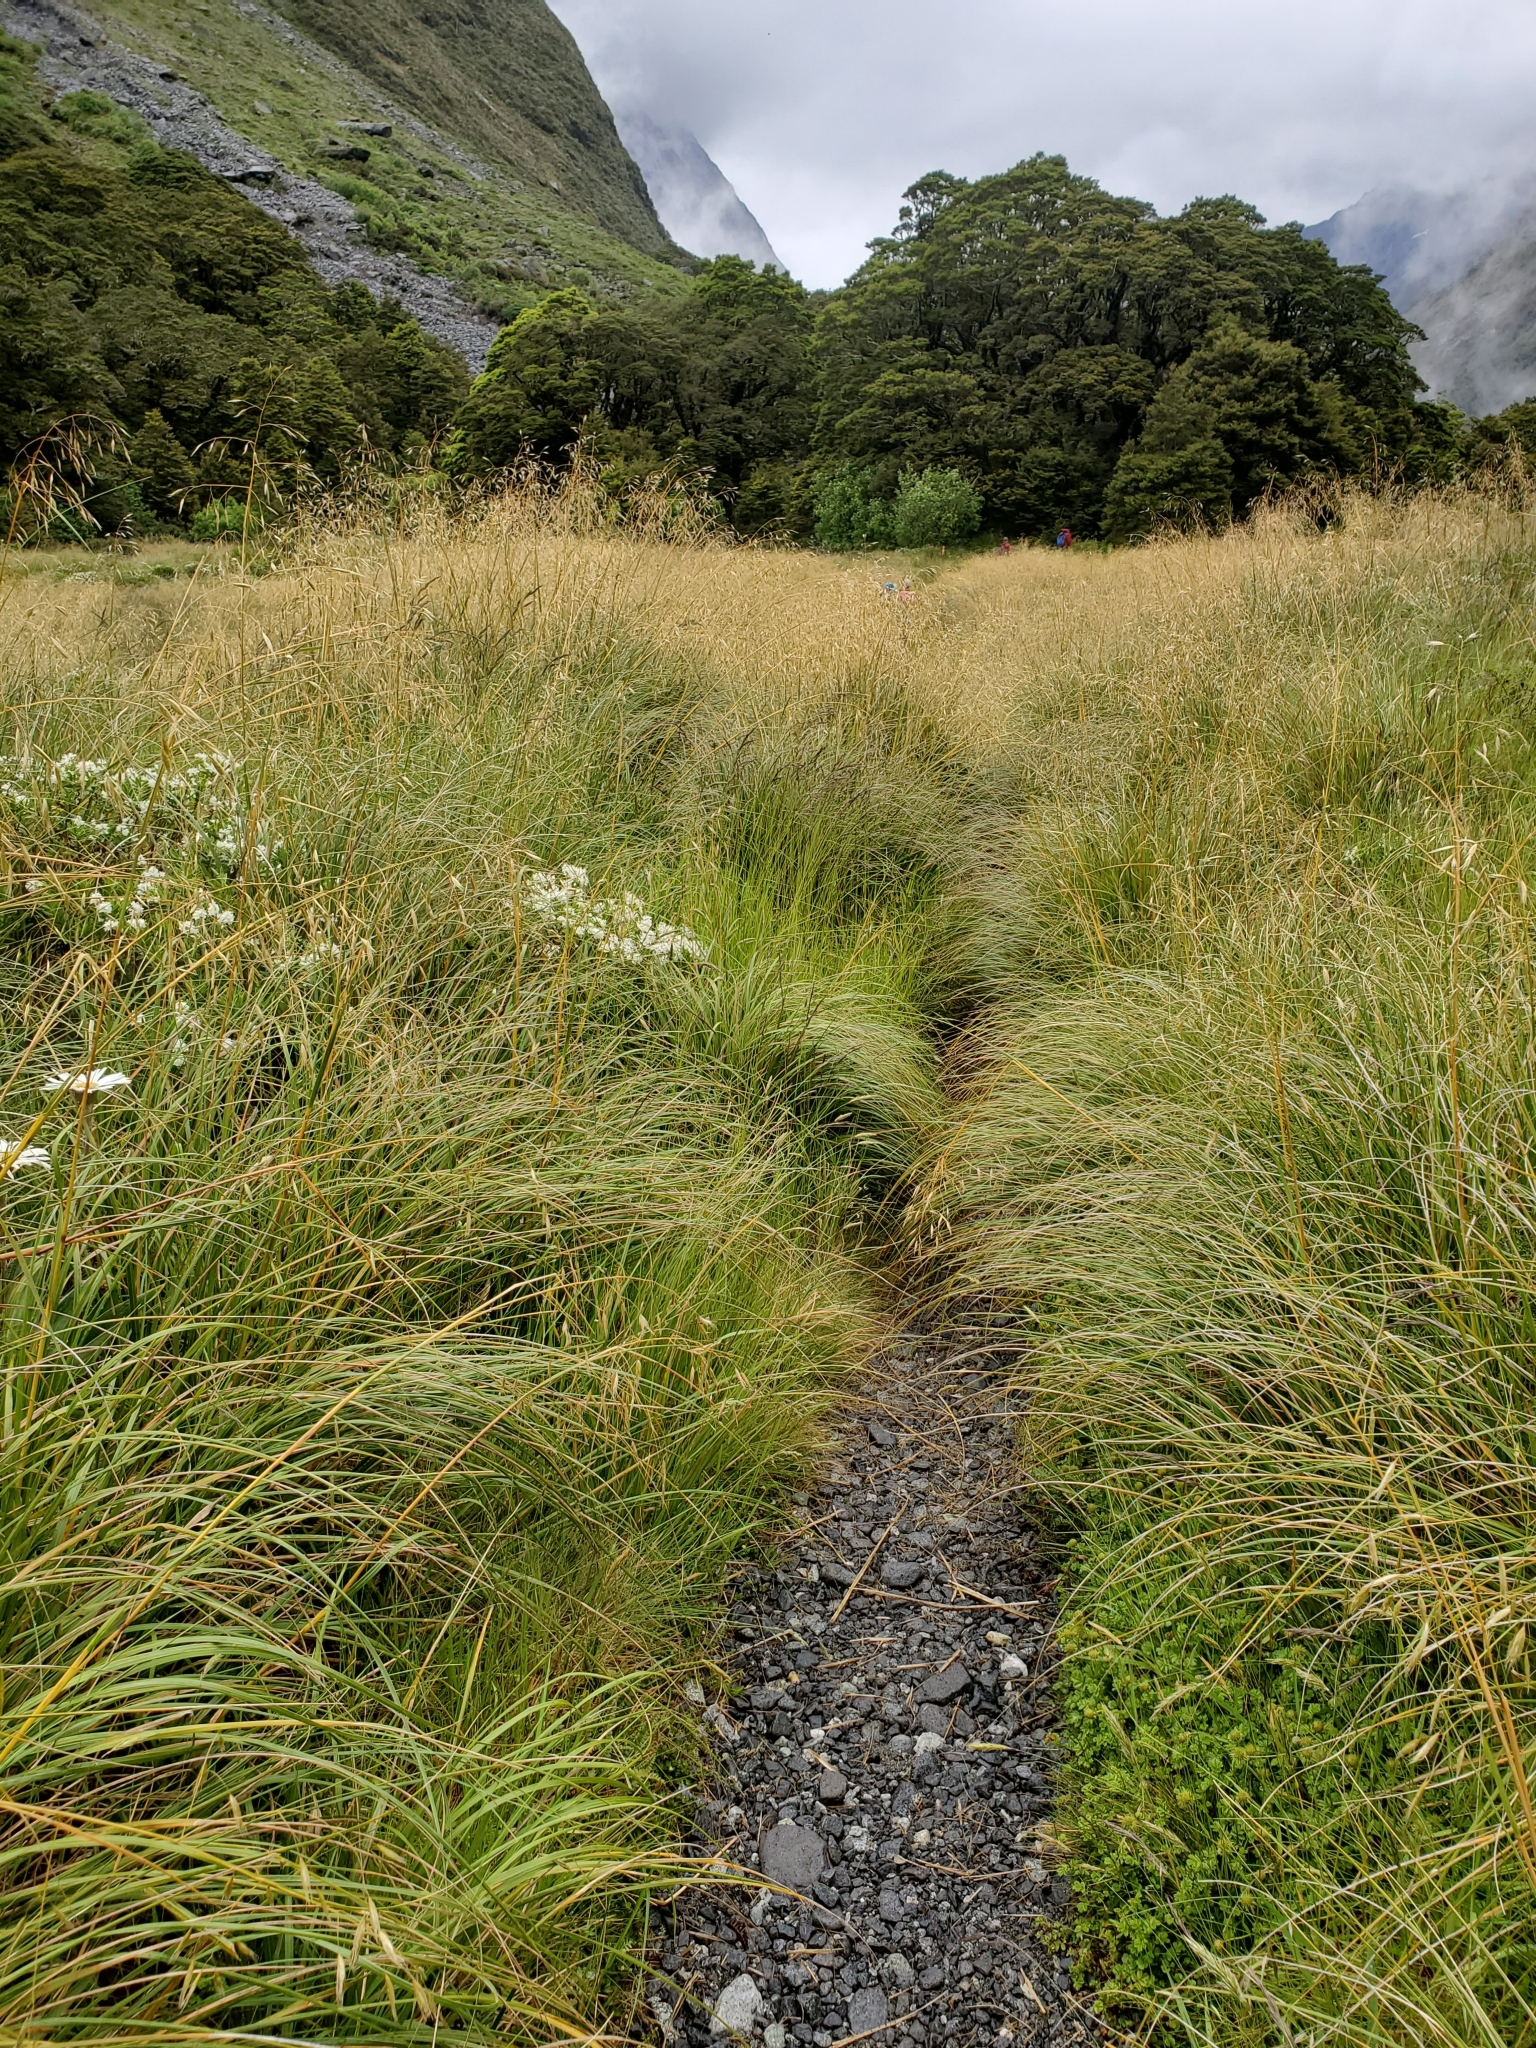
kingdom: Plantae
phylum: Tracheophyta
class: Liliopsida
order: Poales
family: Poaceae
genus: Chionochloa
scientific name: Chionochloa pallens
